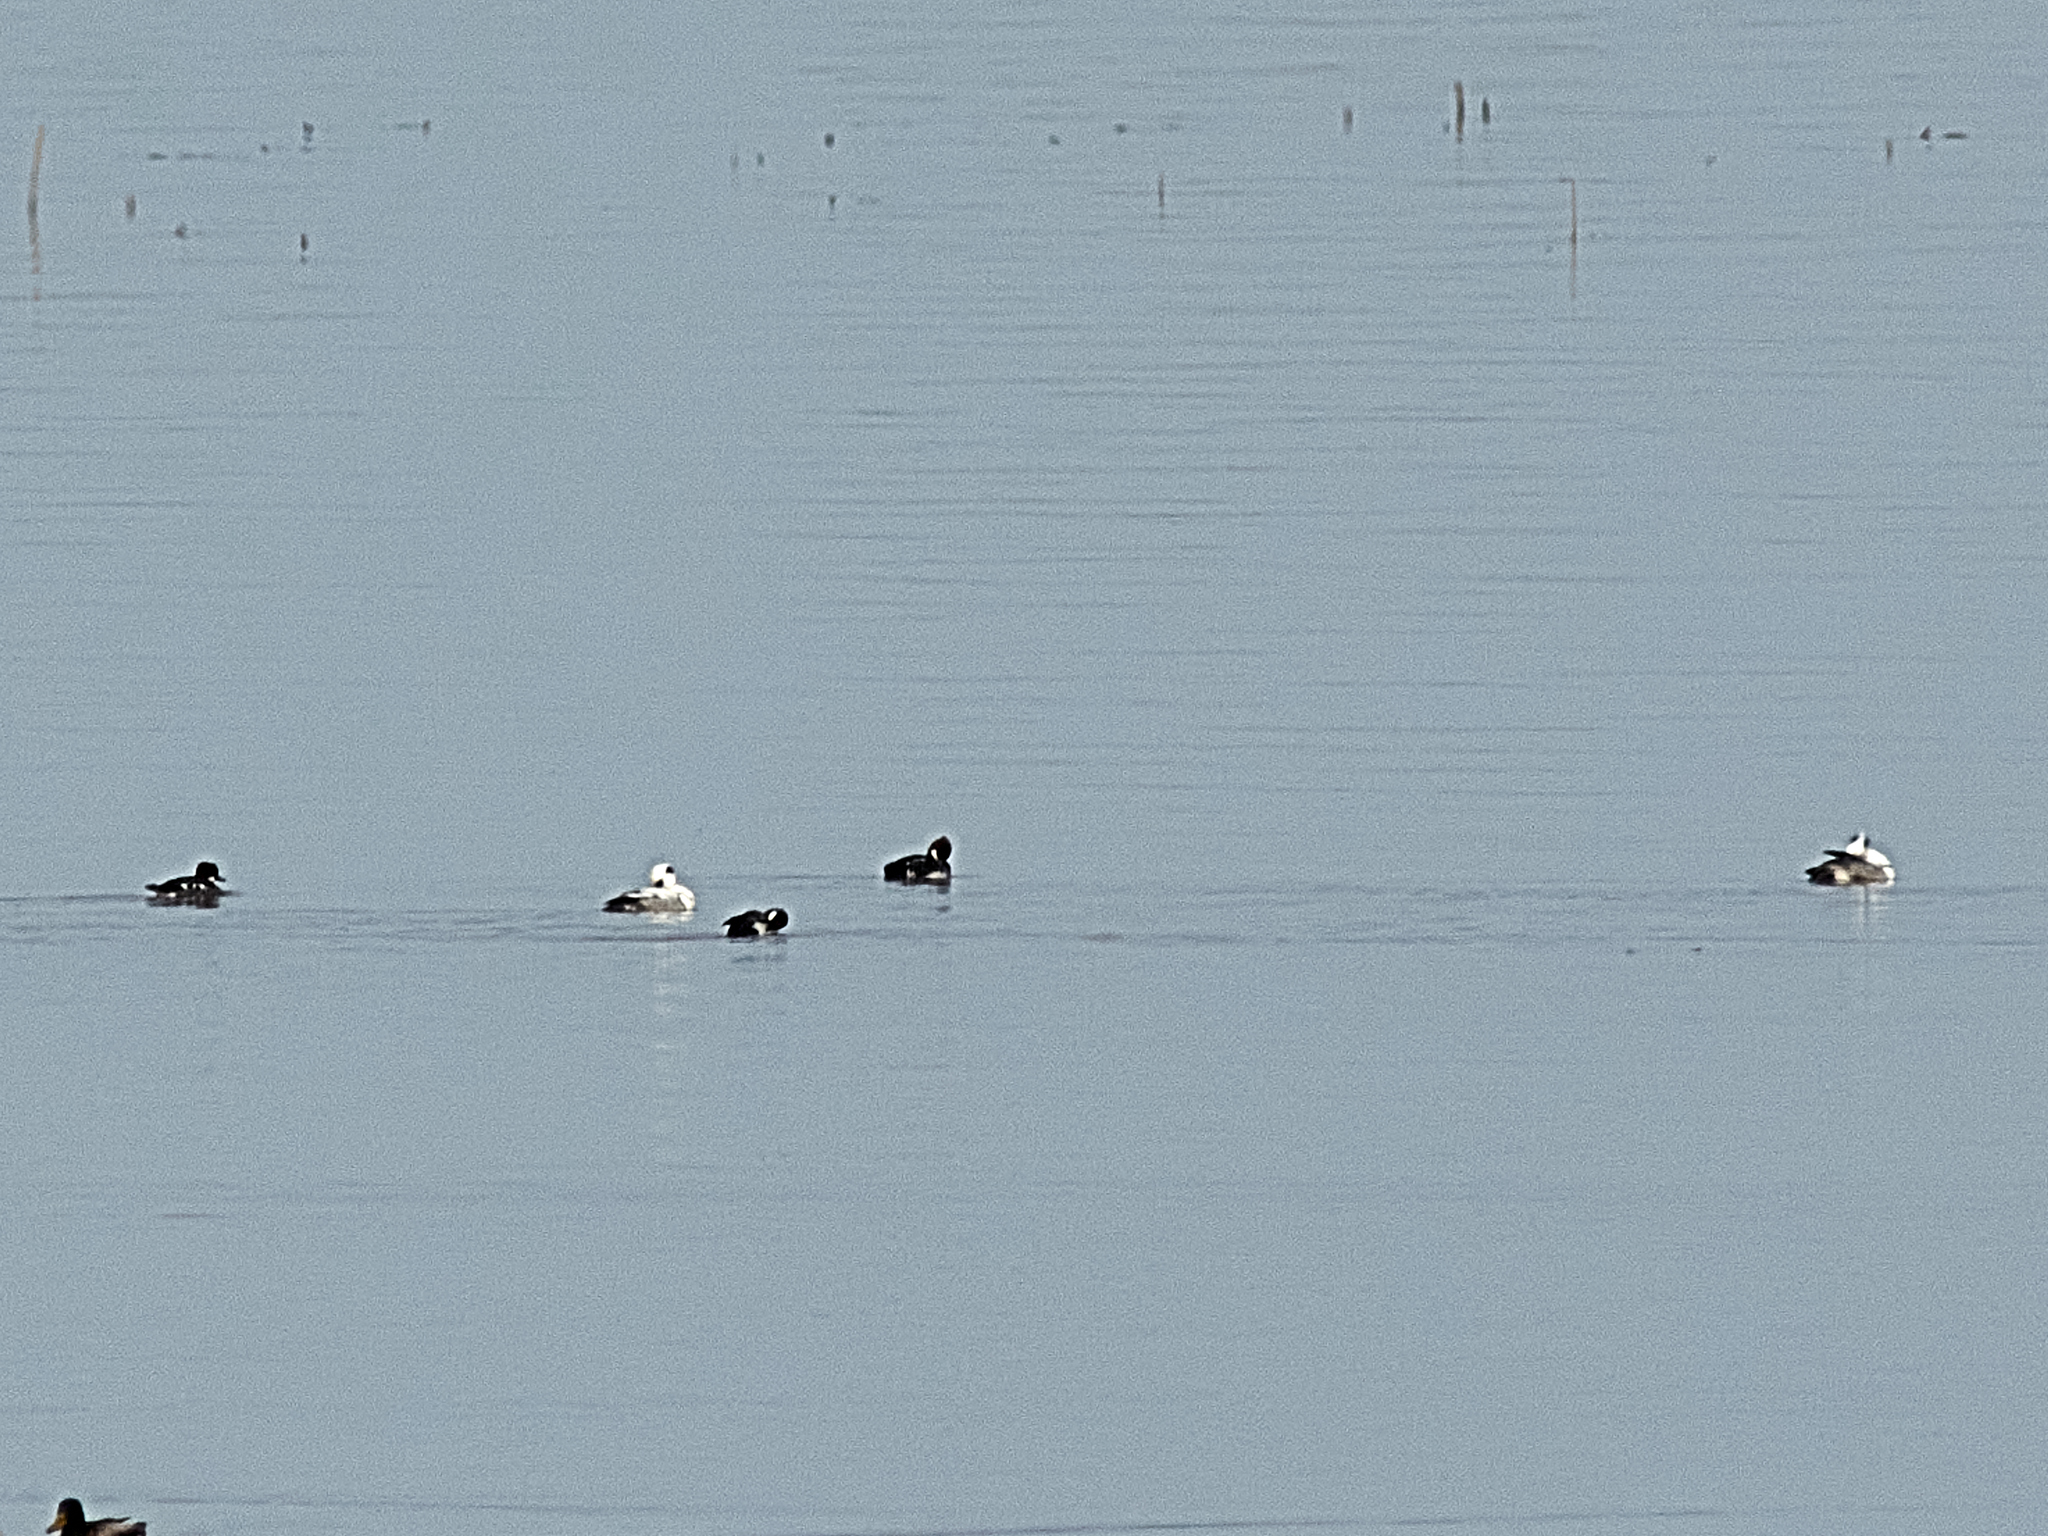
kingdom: Animalia
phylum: Chordata
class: Aves
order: Anseriformes
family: Anatidae
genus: Mergellus
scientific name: Mergellus albellus
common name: Smew
